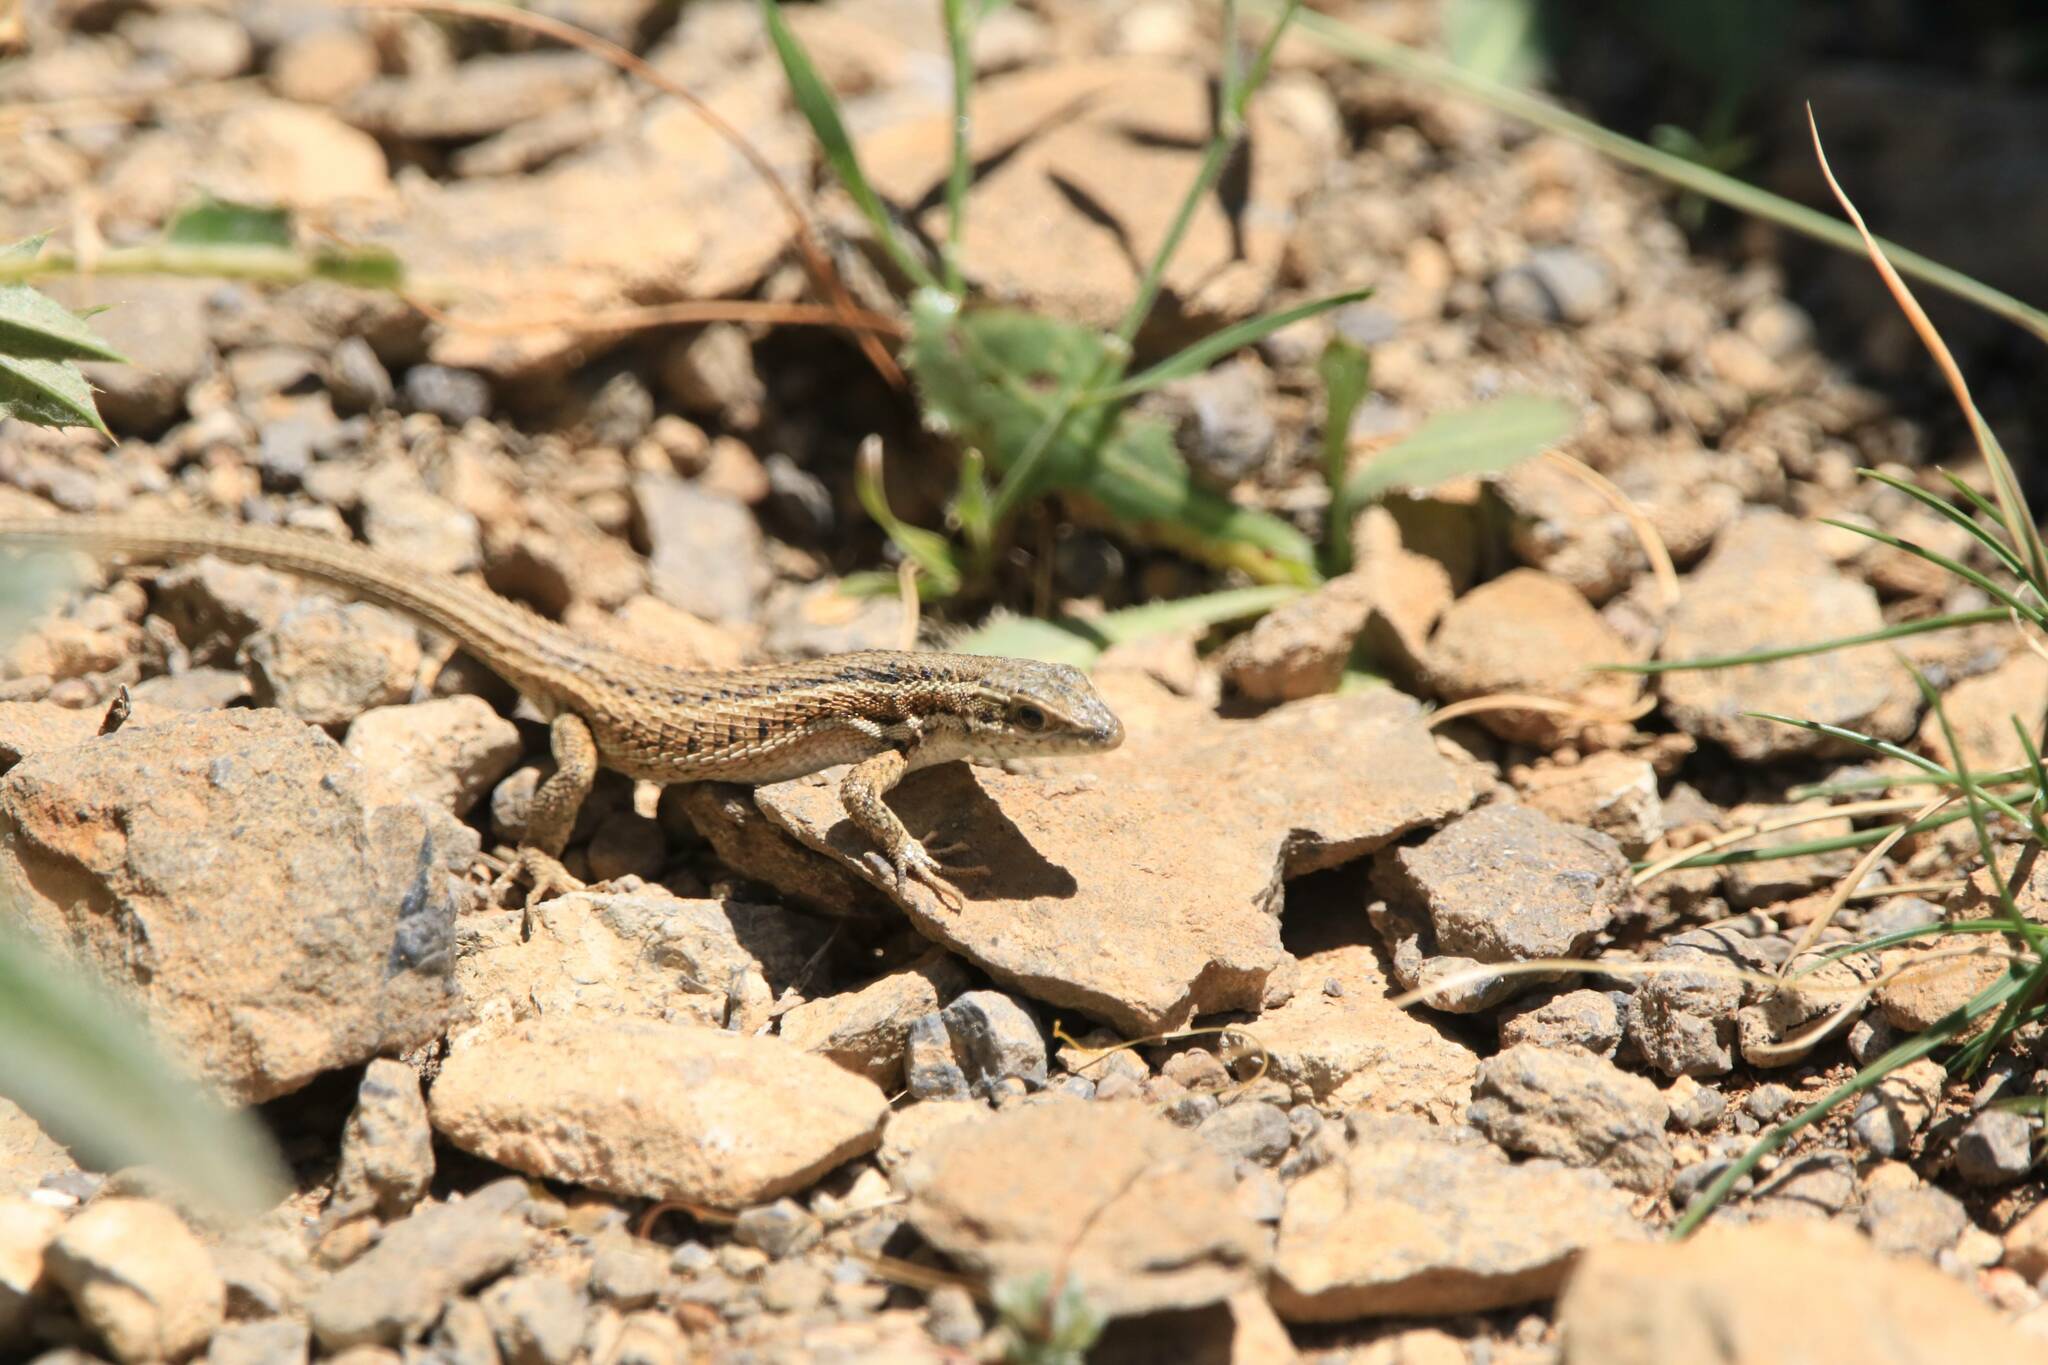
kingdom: Animalia
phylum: Chordata
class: Squamata
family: Lacertidae
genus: Ophisops
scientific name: Ophisops occidentalis
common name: Western snake-eyed lizard
